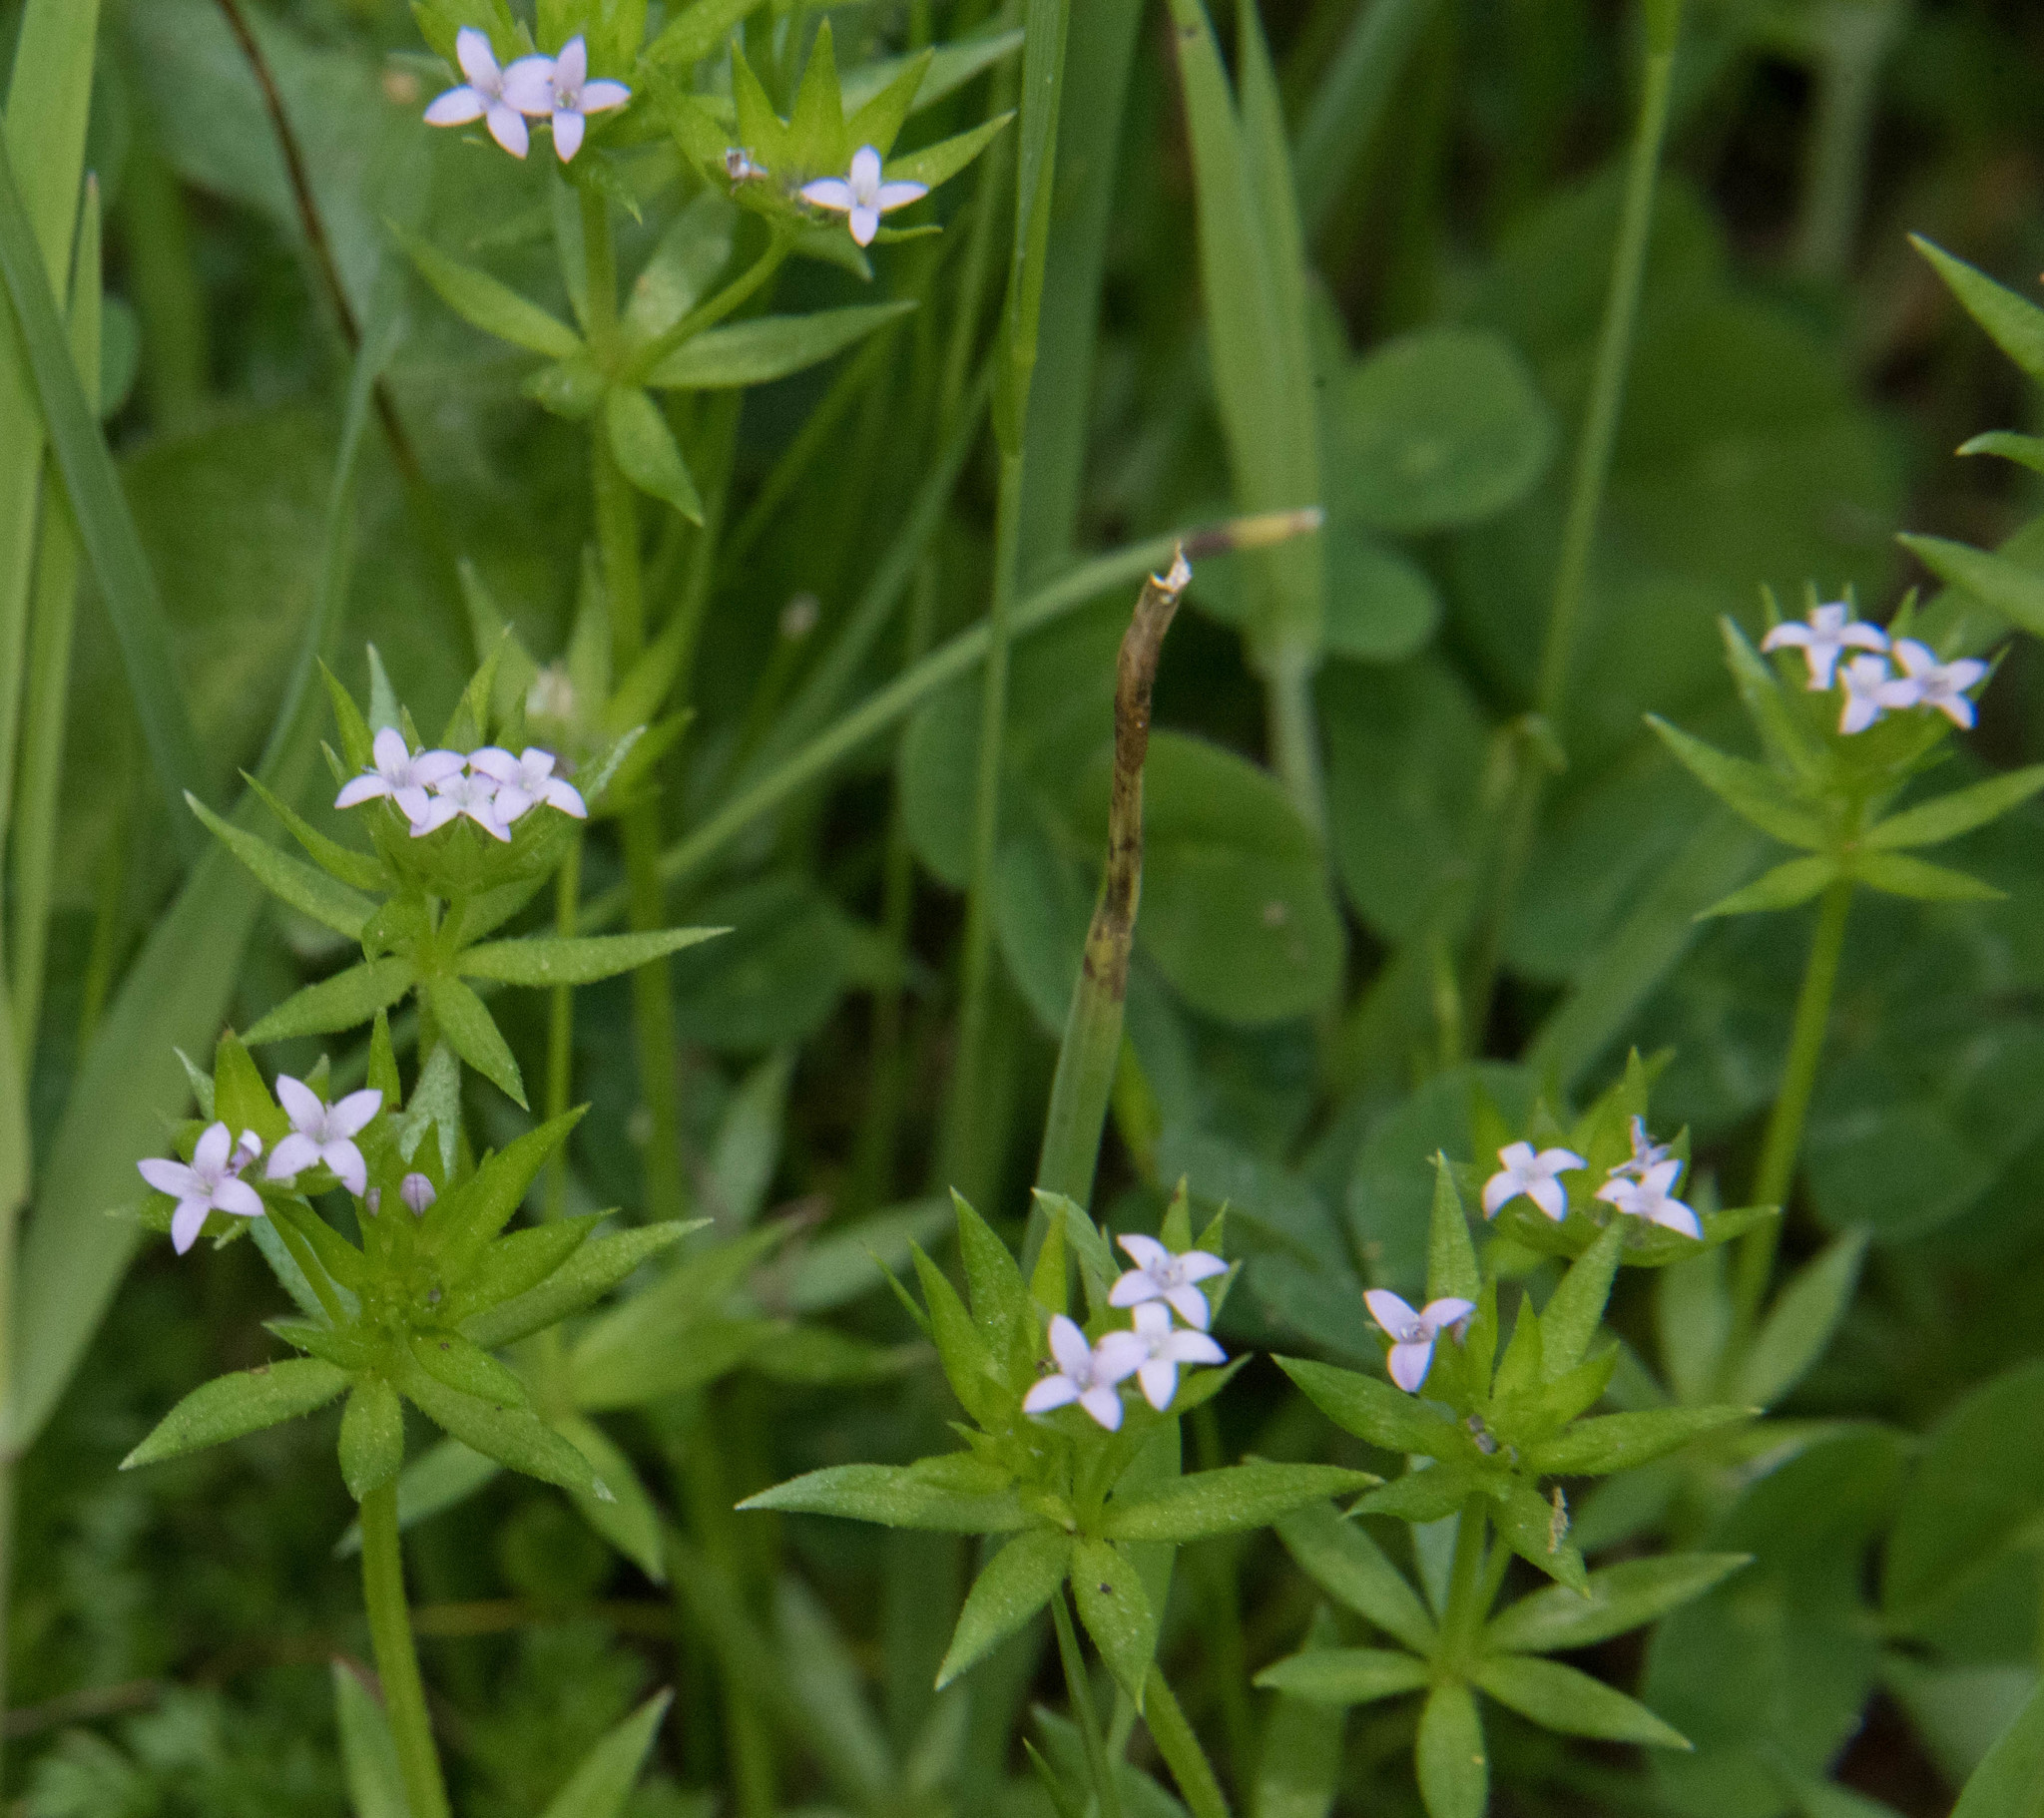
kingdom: Plantae
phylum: Tracheophyta
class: Magnoliopsida
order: Gentianales
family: Rubiaceae
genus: Sherardia
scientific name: Sherardia arvensis
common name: Field madder
